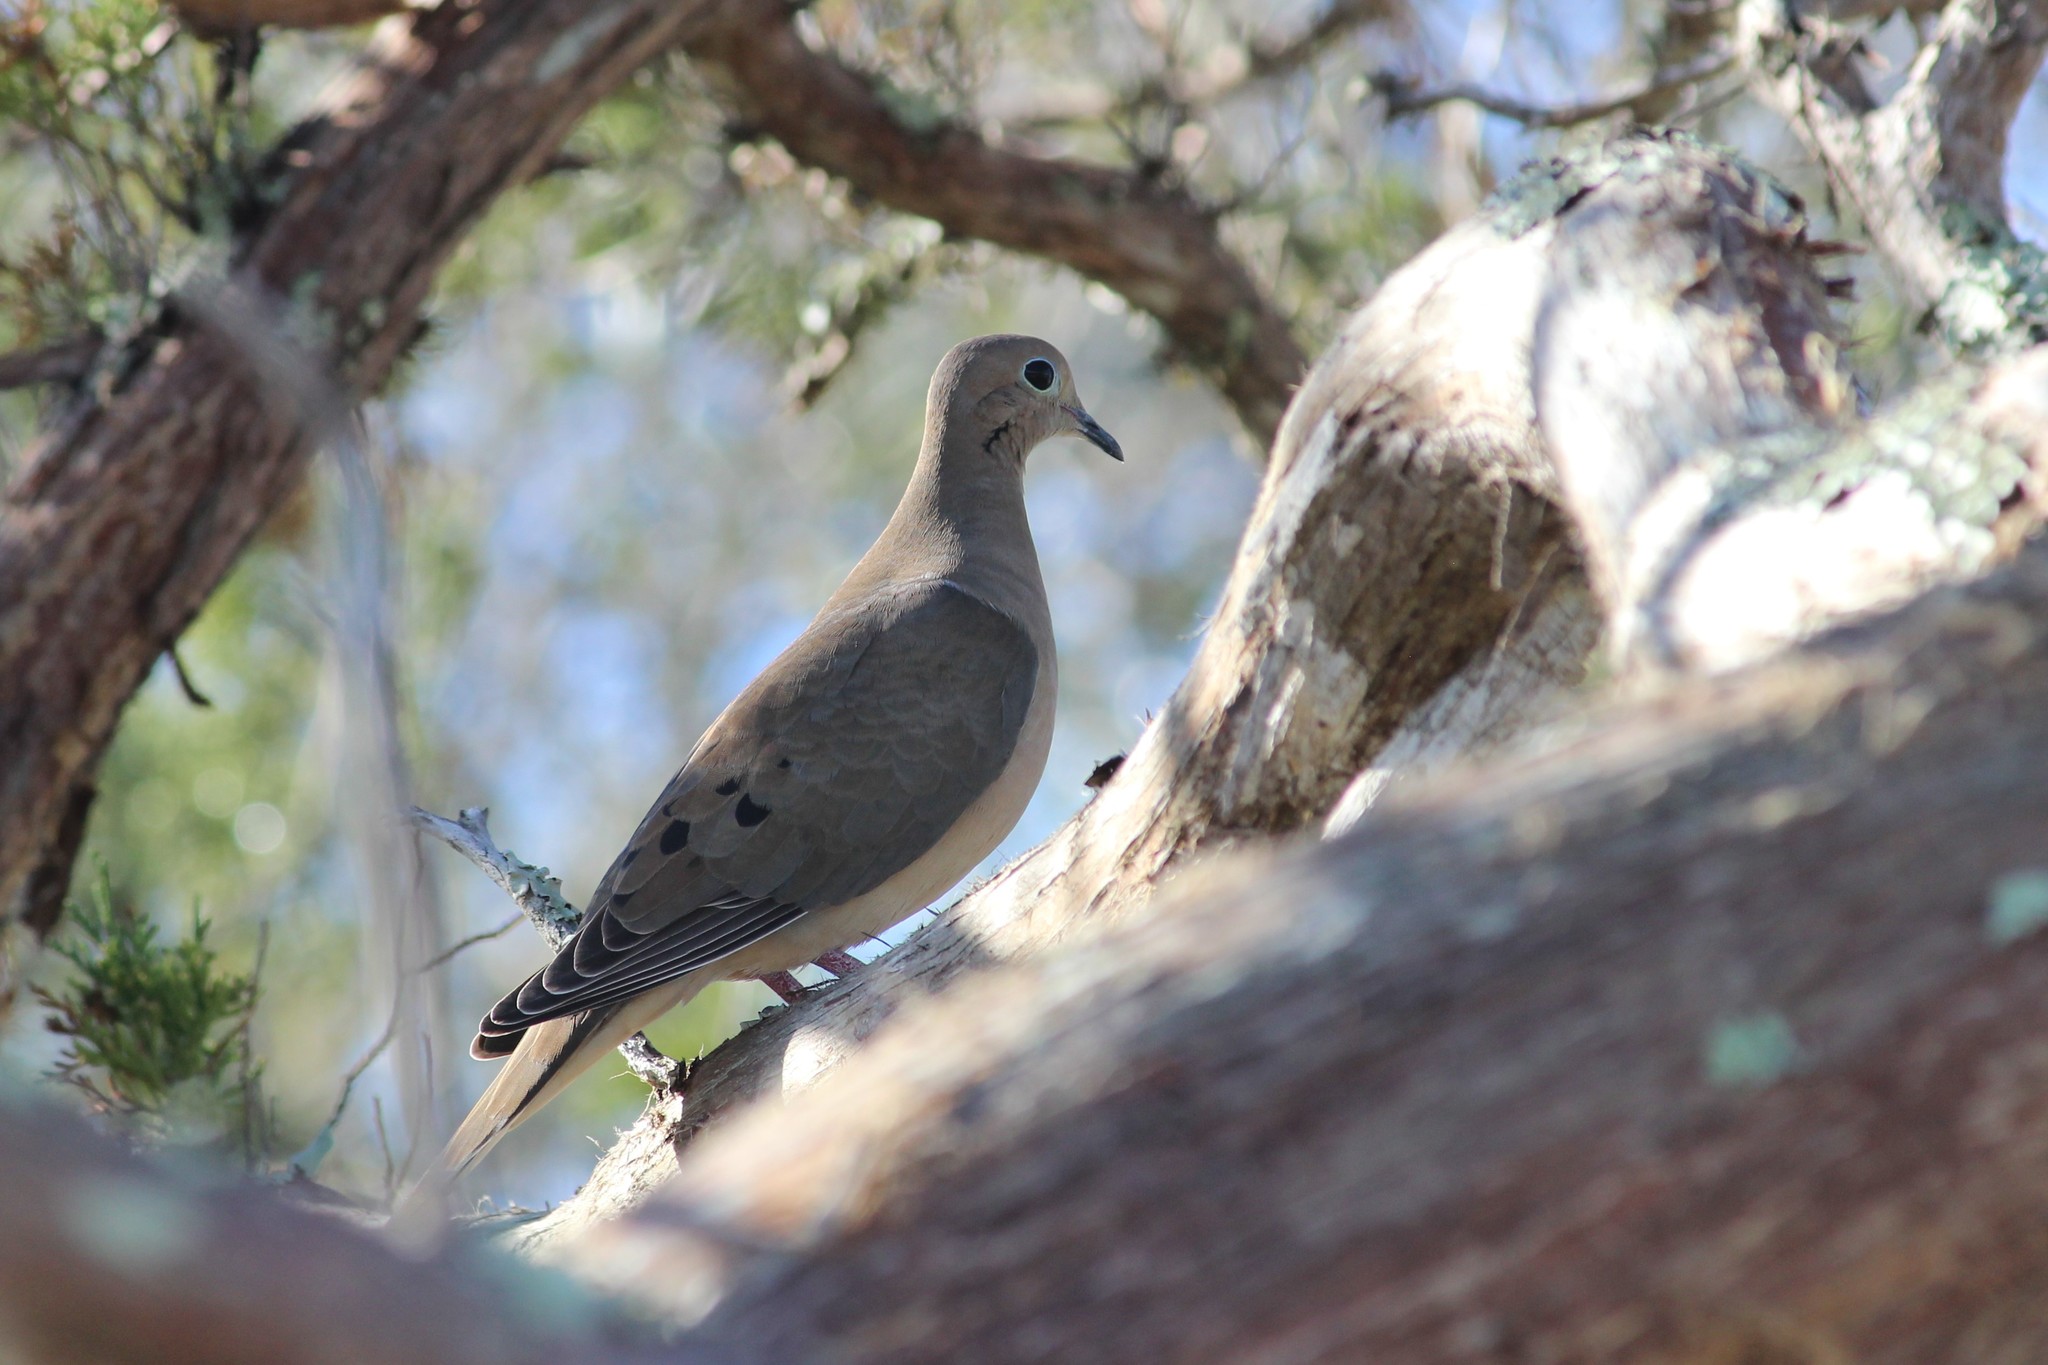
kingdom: Animalia
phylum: Chordata
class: Aves
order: Columbiformes
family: Columbidae
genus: Zenaida
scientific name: Zenaida macroura
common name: Mourning dove
